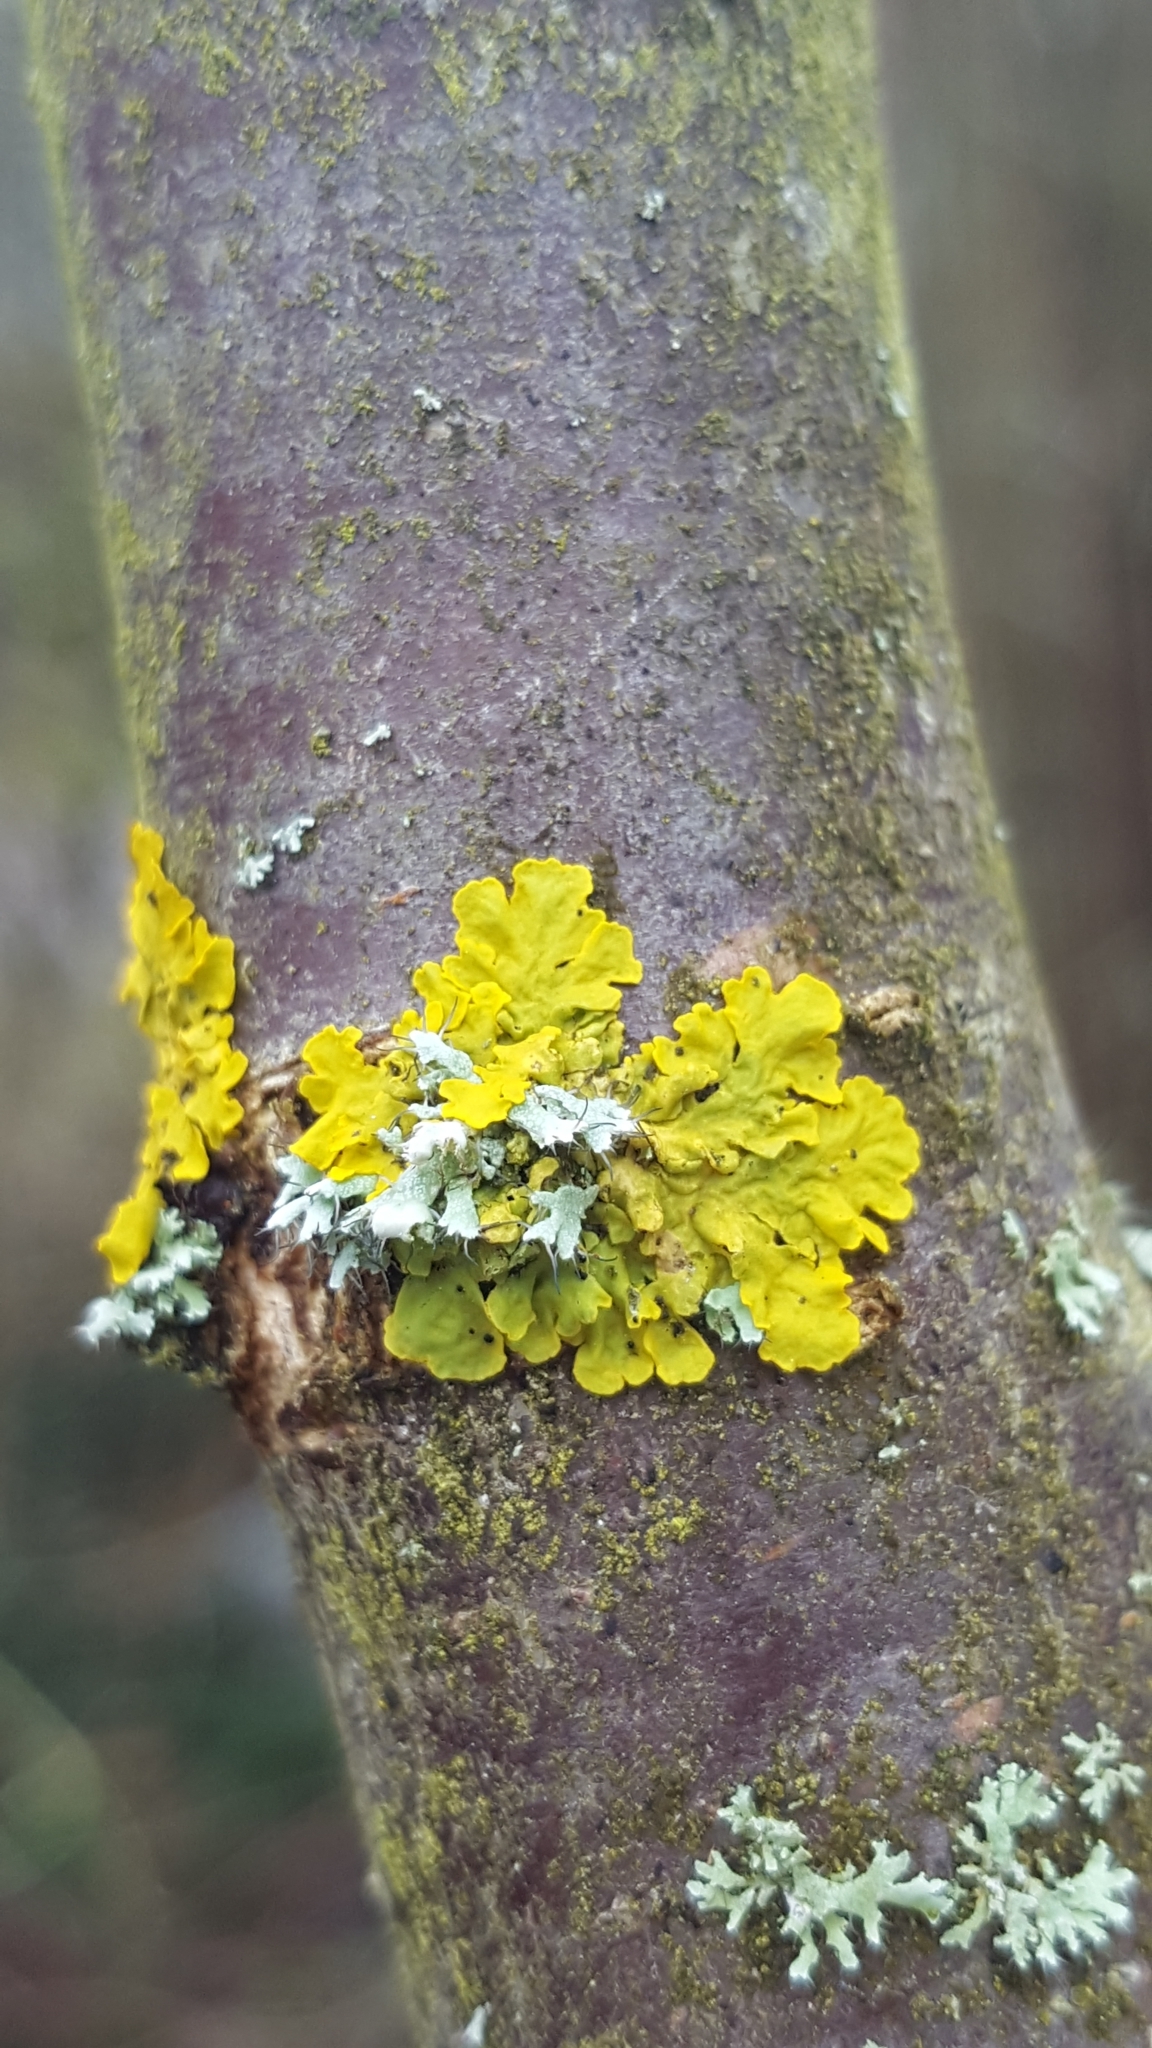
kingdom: Fungi
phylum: Ascomycota
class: Lecanoromycetes
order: Teloschistales
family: Teloschistaceae
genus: Xanthoria
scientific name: Xanthoria parietina
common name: Common orange lichen
